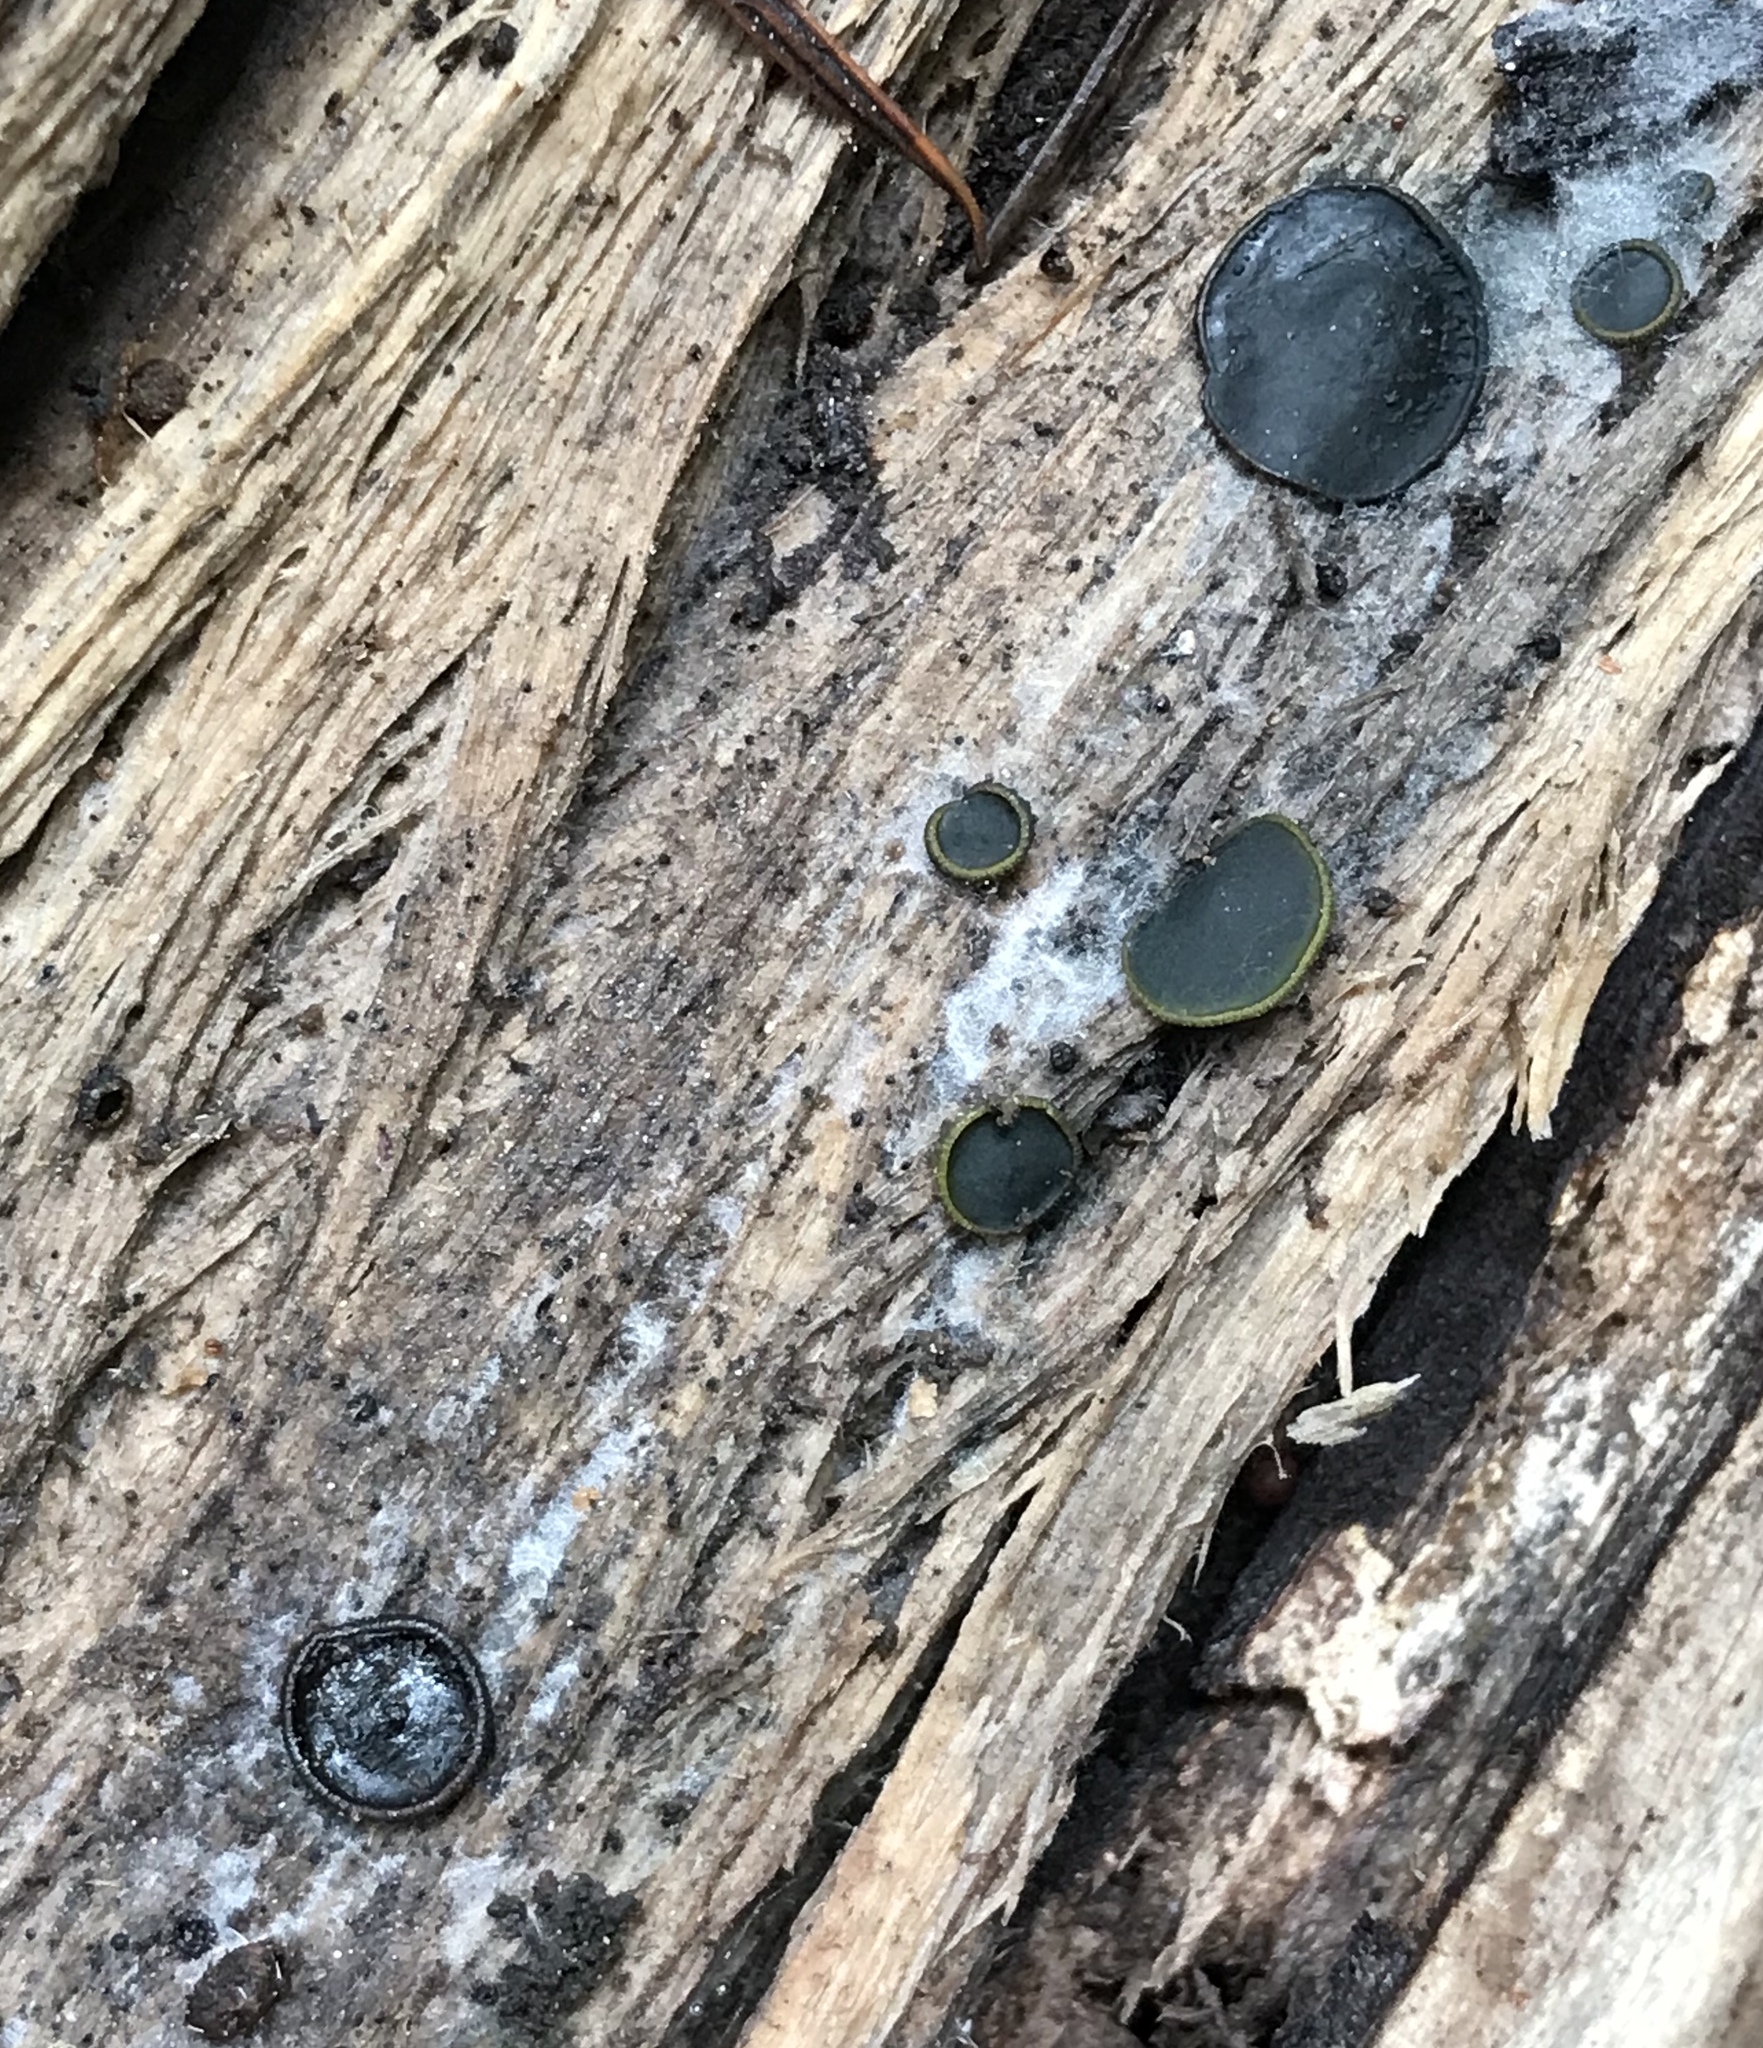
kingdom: Fungi
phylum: Ascomycota
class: Dothideomycetes
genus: Catinella
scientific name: Catinella olivacea
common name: Olive salver
